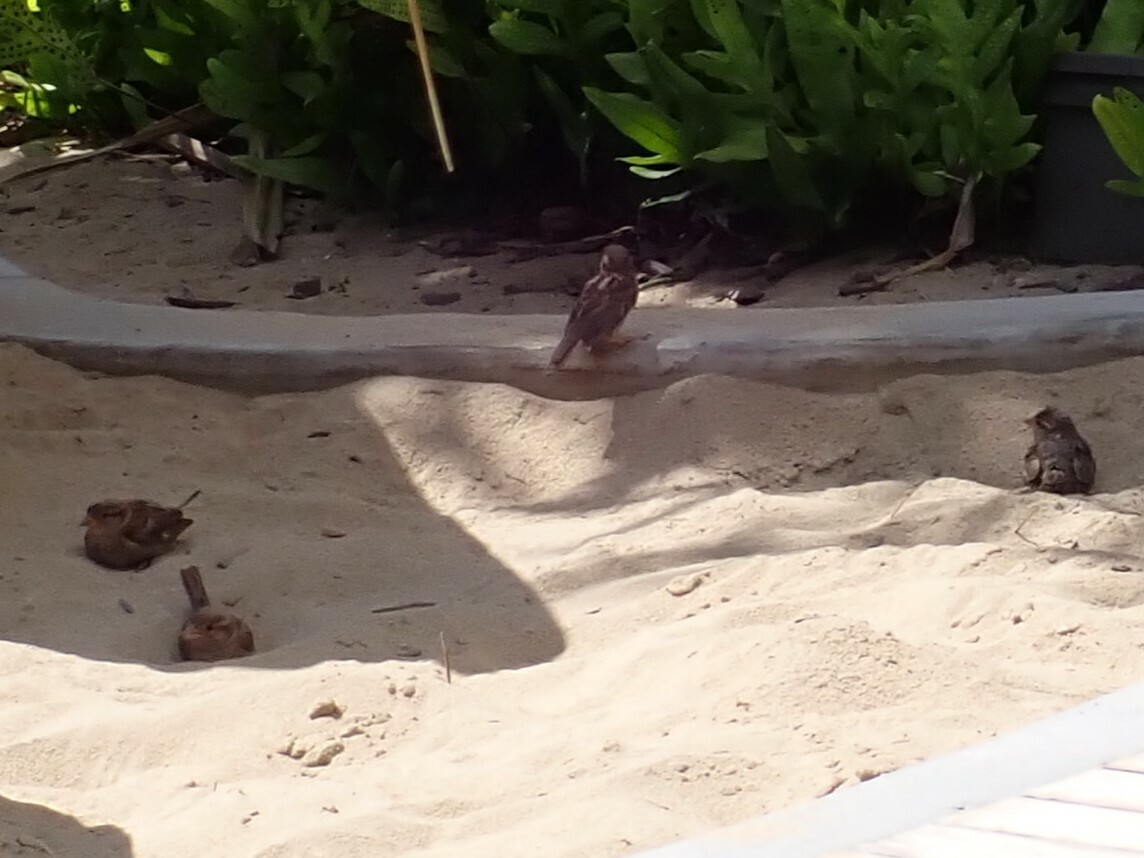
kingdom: Animalia
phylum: Chordata
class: Aves
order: Passeriformes
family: Passeridae
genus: Passer
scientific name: Passer domesticus
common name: House sparrow
